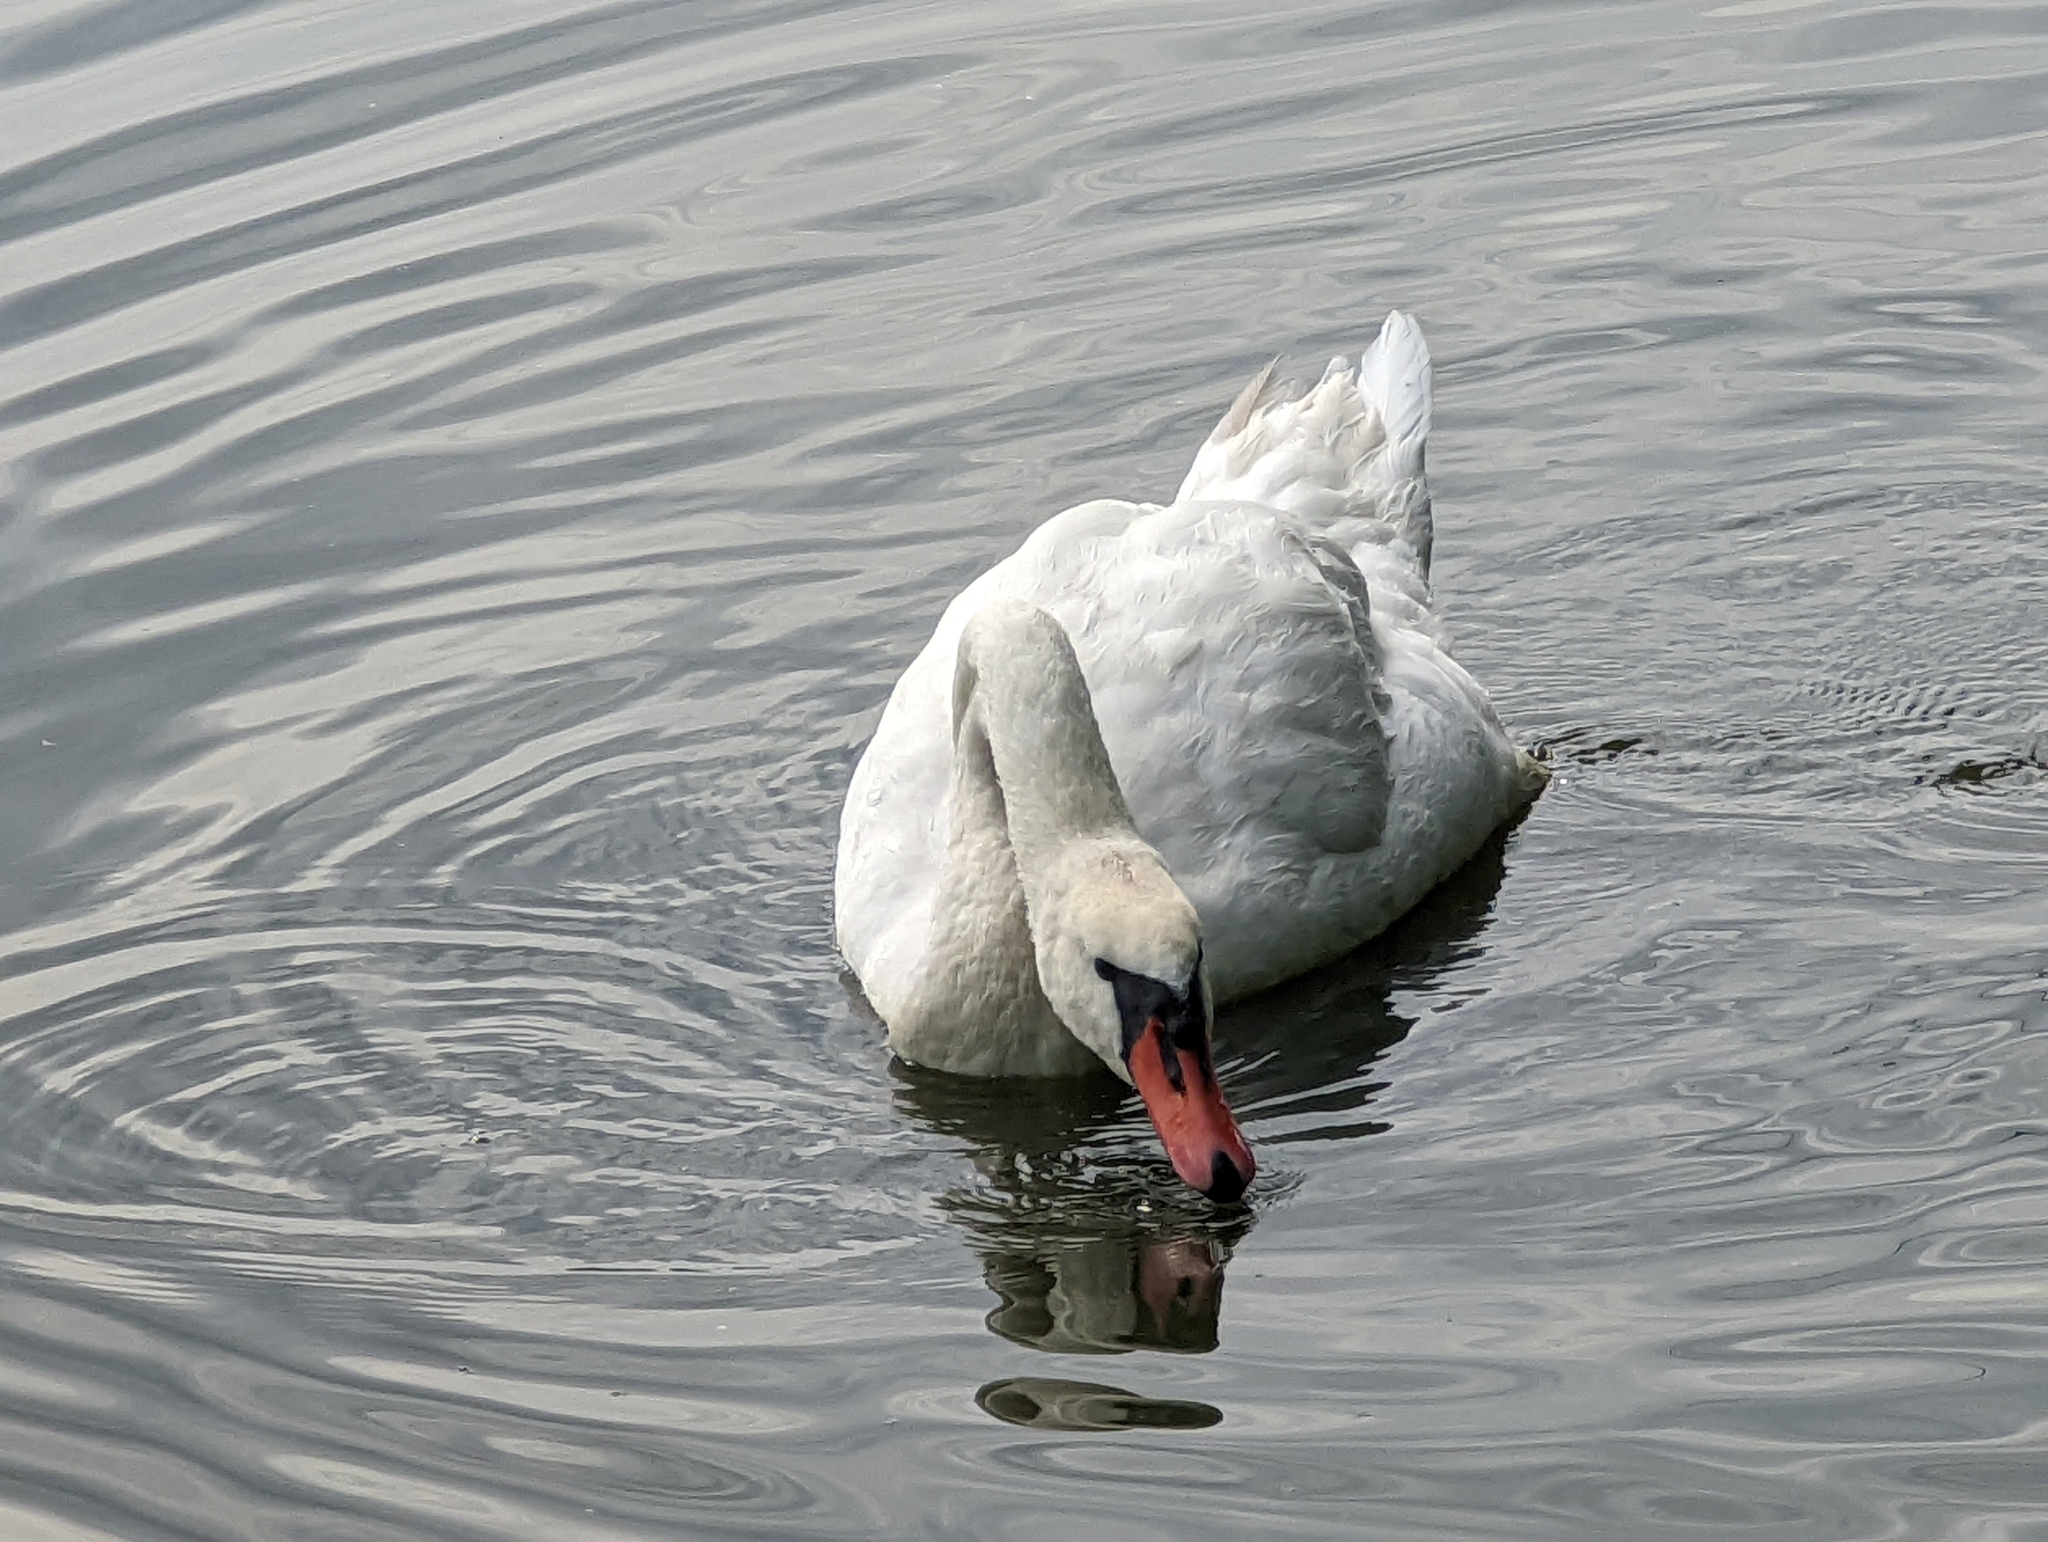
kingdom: Animalia
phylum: Chordata
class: Aves
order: Anseriformes
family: Anatidae
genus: Cygnus
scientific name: Cygnus olor
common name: Mute swan
